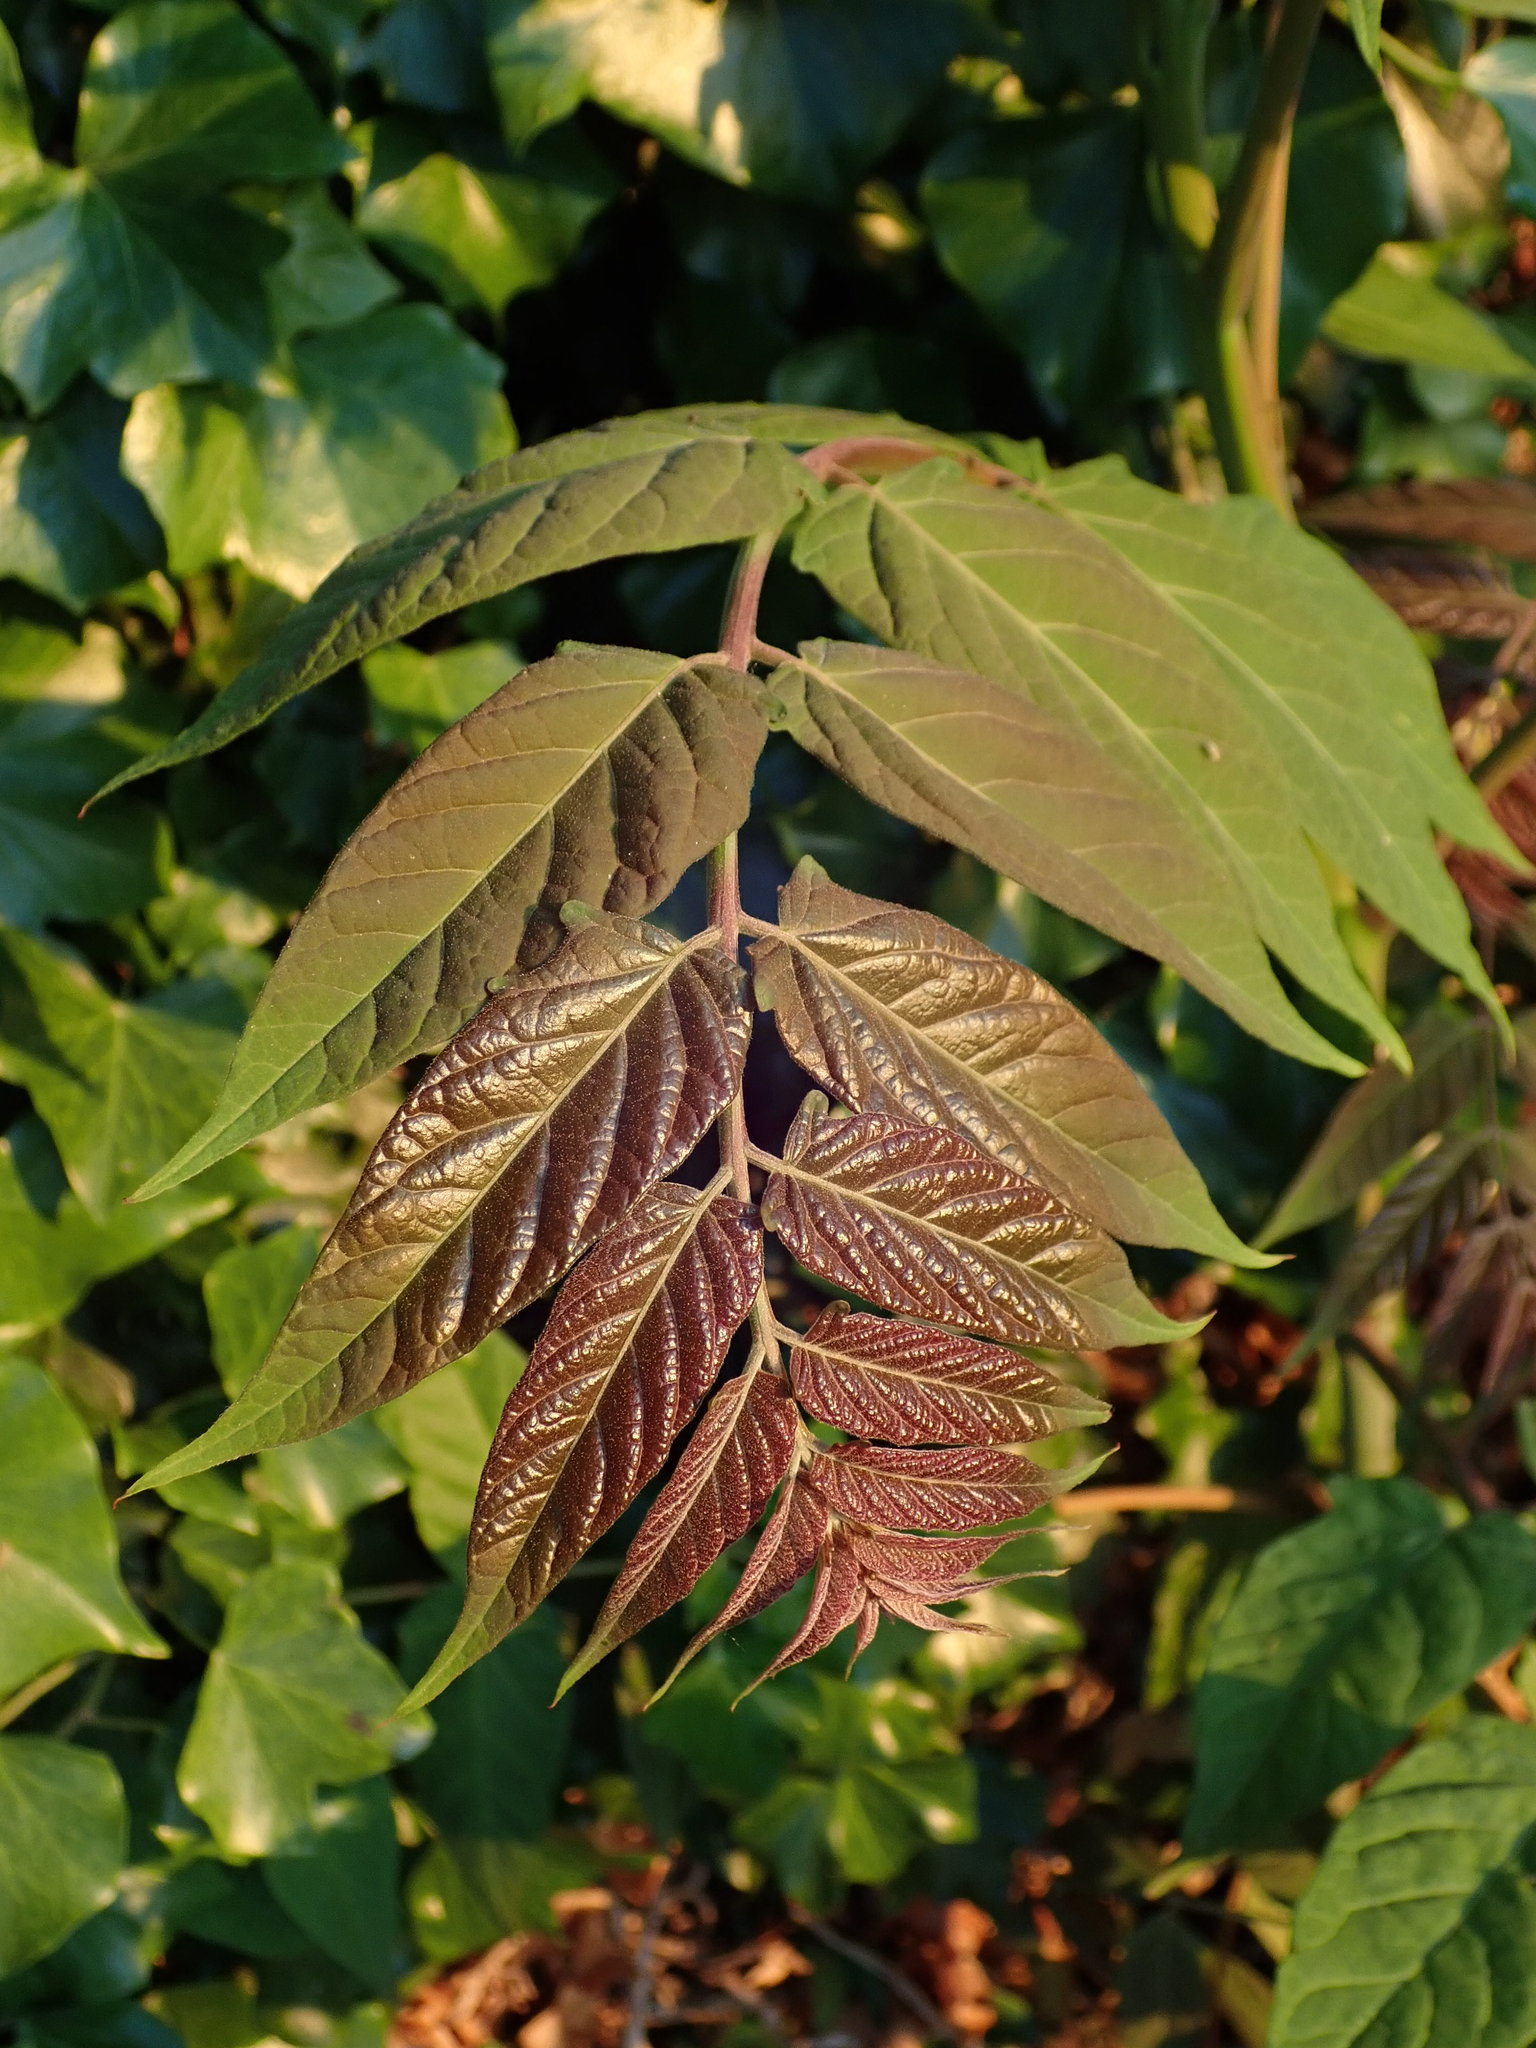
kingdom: Plantae
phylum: Tracheophyta
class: Magnoliopsida
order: Sapindales
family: Simaroubaceae
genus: Ailanthus
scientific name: Ailanthus altissima
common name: Tree-of-heaven
